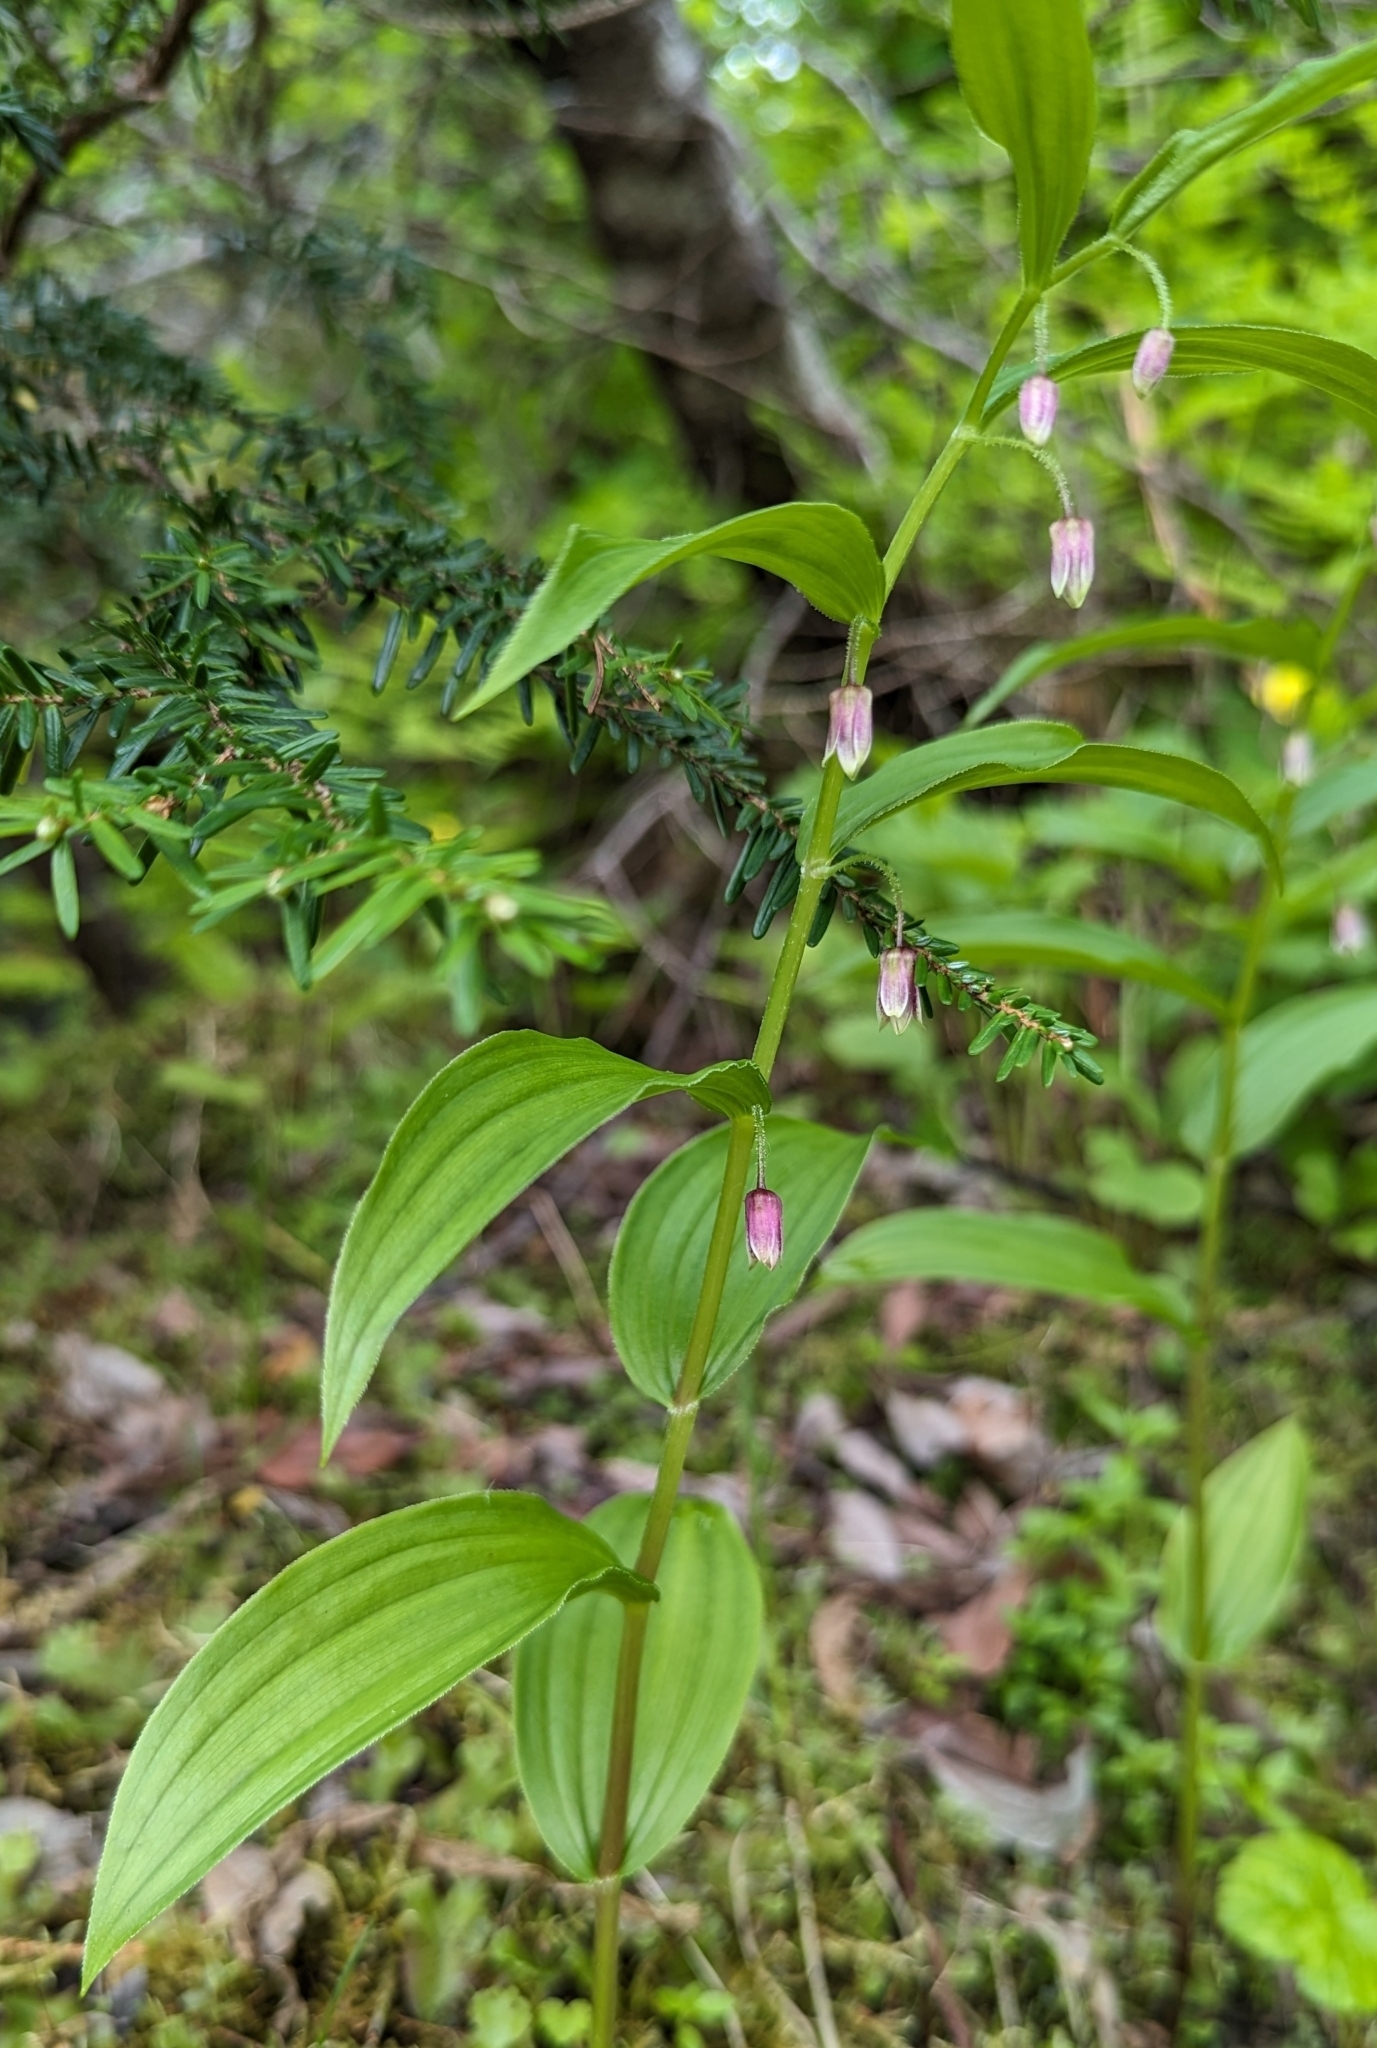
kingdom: Plantae
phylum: Tracheophyta
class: Liliopsida
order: Liliales
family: Liliaceae
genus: Streptopus
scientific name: Streptopus lanceolatus
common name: Rose mandarin
